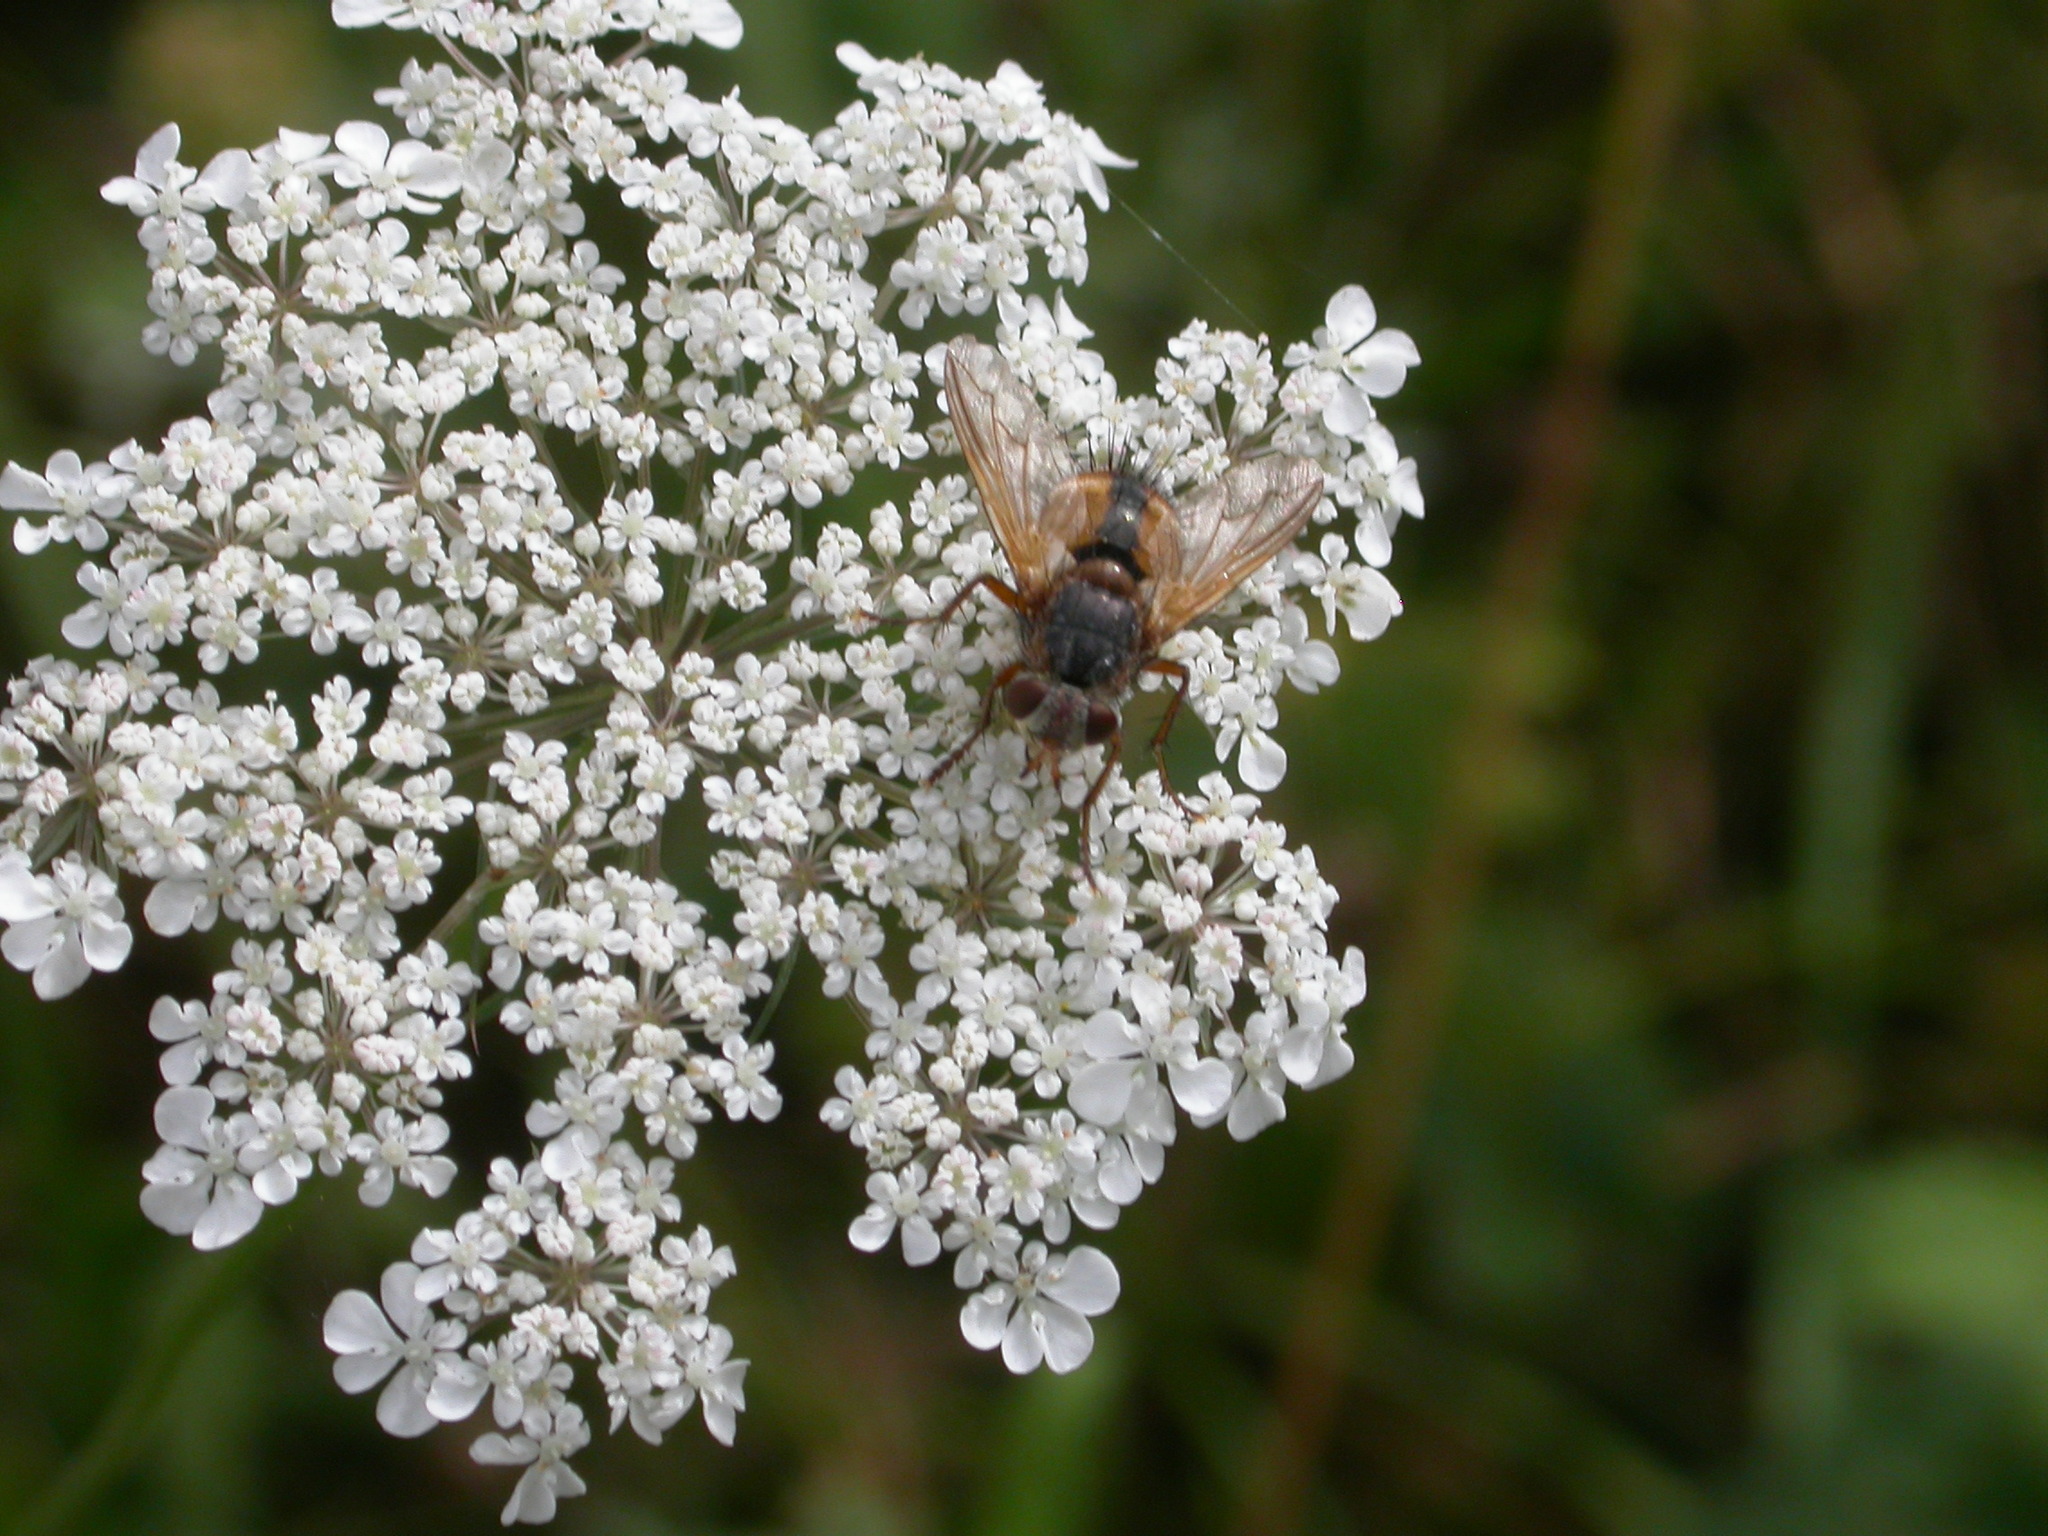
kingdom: Animalia
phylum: Arthropoda
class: Insecta
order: Diptera
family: Tachinidae
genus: Tachina
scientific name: Tachina fera
